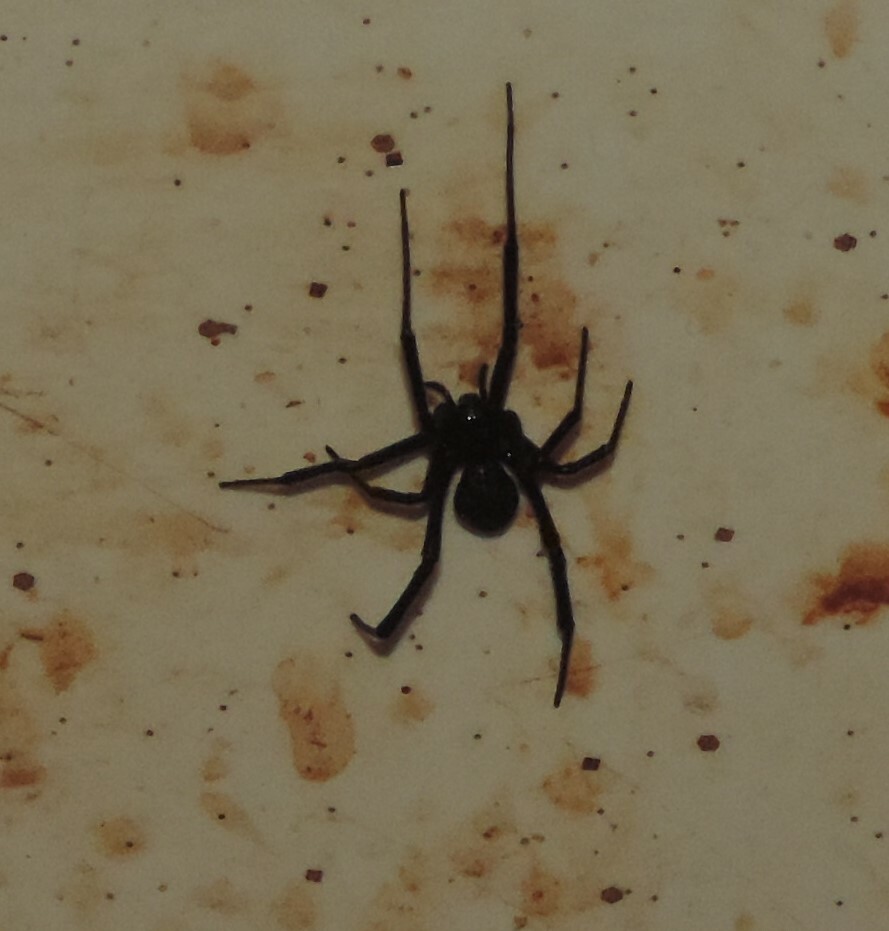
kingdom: Animalia
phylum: Arthropoda
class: Arachnida
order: Araneae
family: Theridiidae
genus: Latrodectus
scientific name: Latrodectus hesperus
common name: Western black widow
